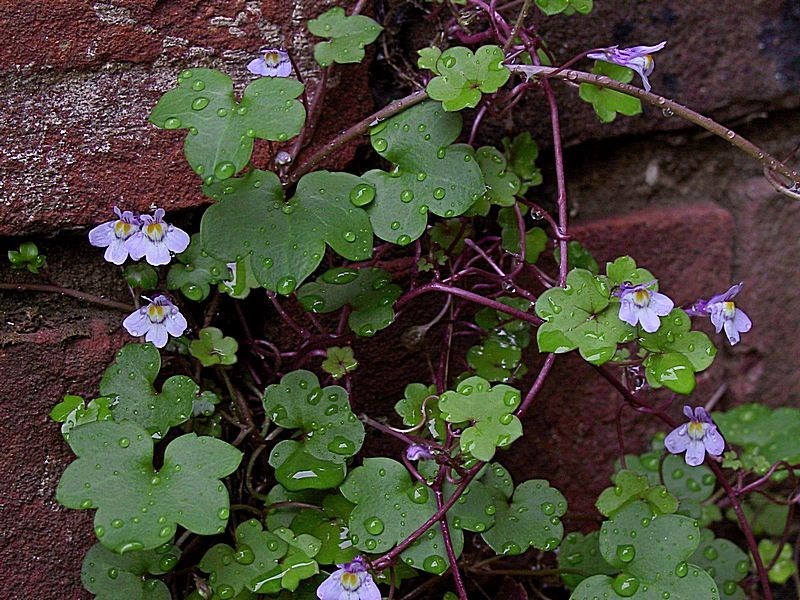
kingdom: Plantae
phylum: Tracheophyta
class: Magnoliopsida
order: Lamiales
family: Plantaginaceae
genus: Cymbalaria
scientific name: Cymbalaria muralis
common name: Ivy-leaved toadflax
